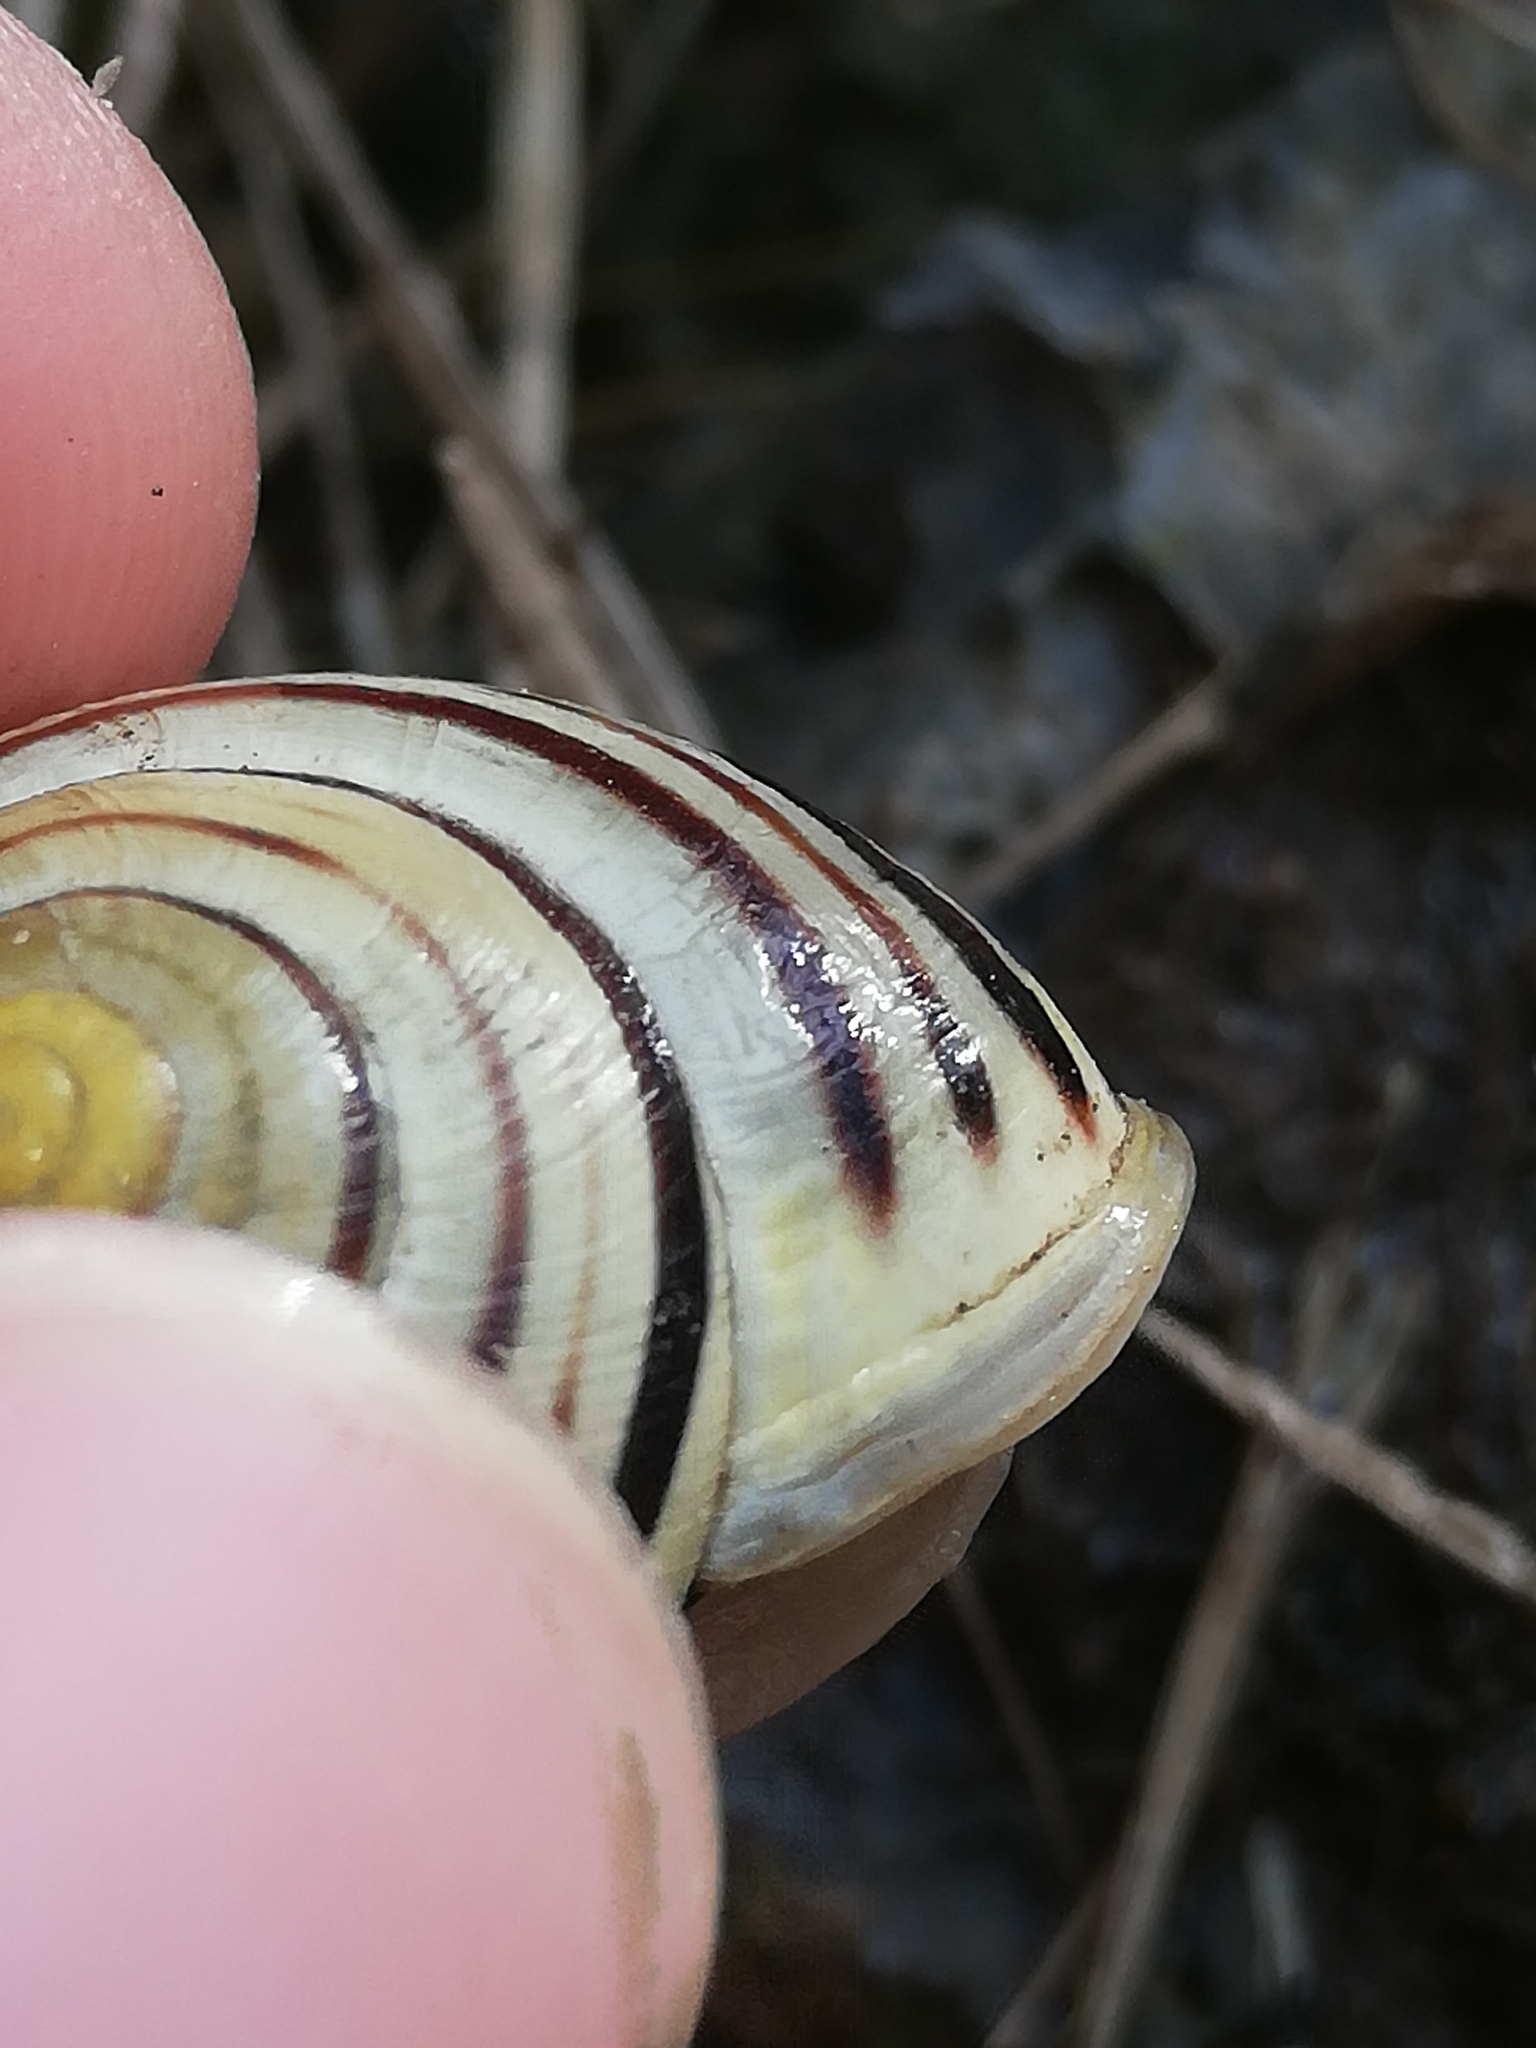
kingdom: Animalia
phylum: Mollusca
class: Gastropoda
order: Stylommatophora
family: Helicidae
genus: Cepaea
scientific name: Cepaea hortensis
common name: White-lip gardensnail
